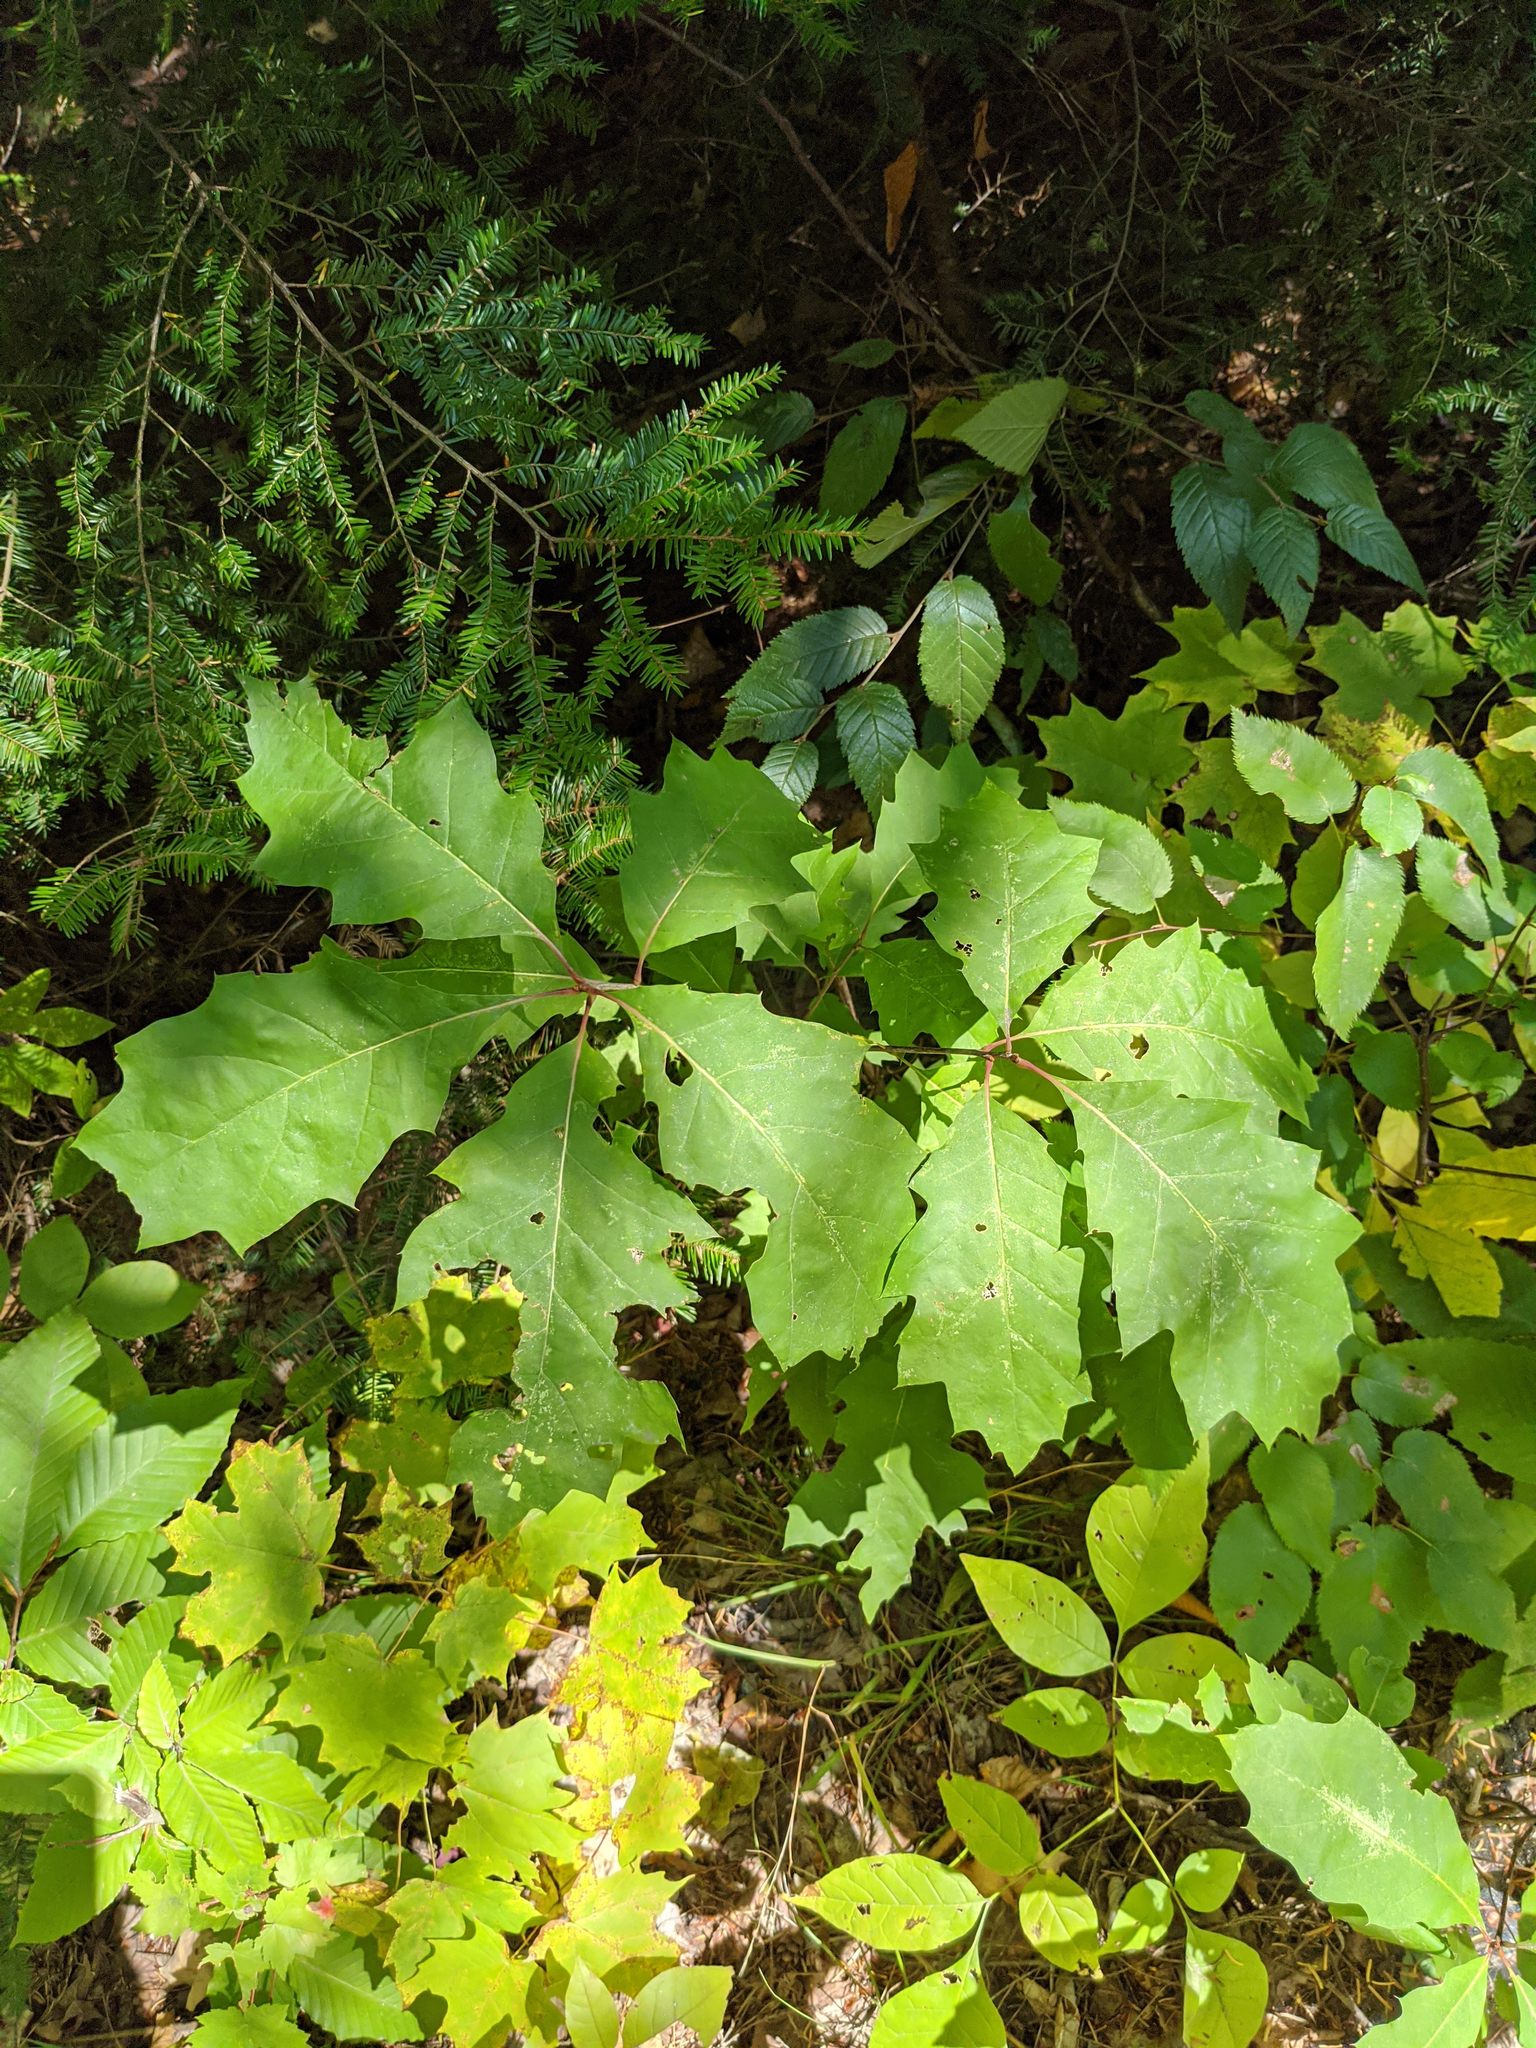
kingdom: Plantae
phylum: Tracheophyta
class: Magnoliopsida
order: Fagales
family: Fagaceae
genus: Quercus
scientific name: Quercus rubra
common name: Red oak
